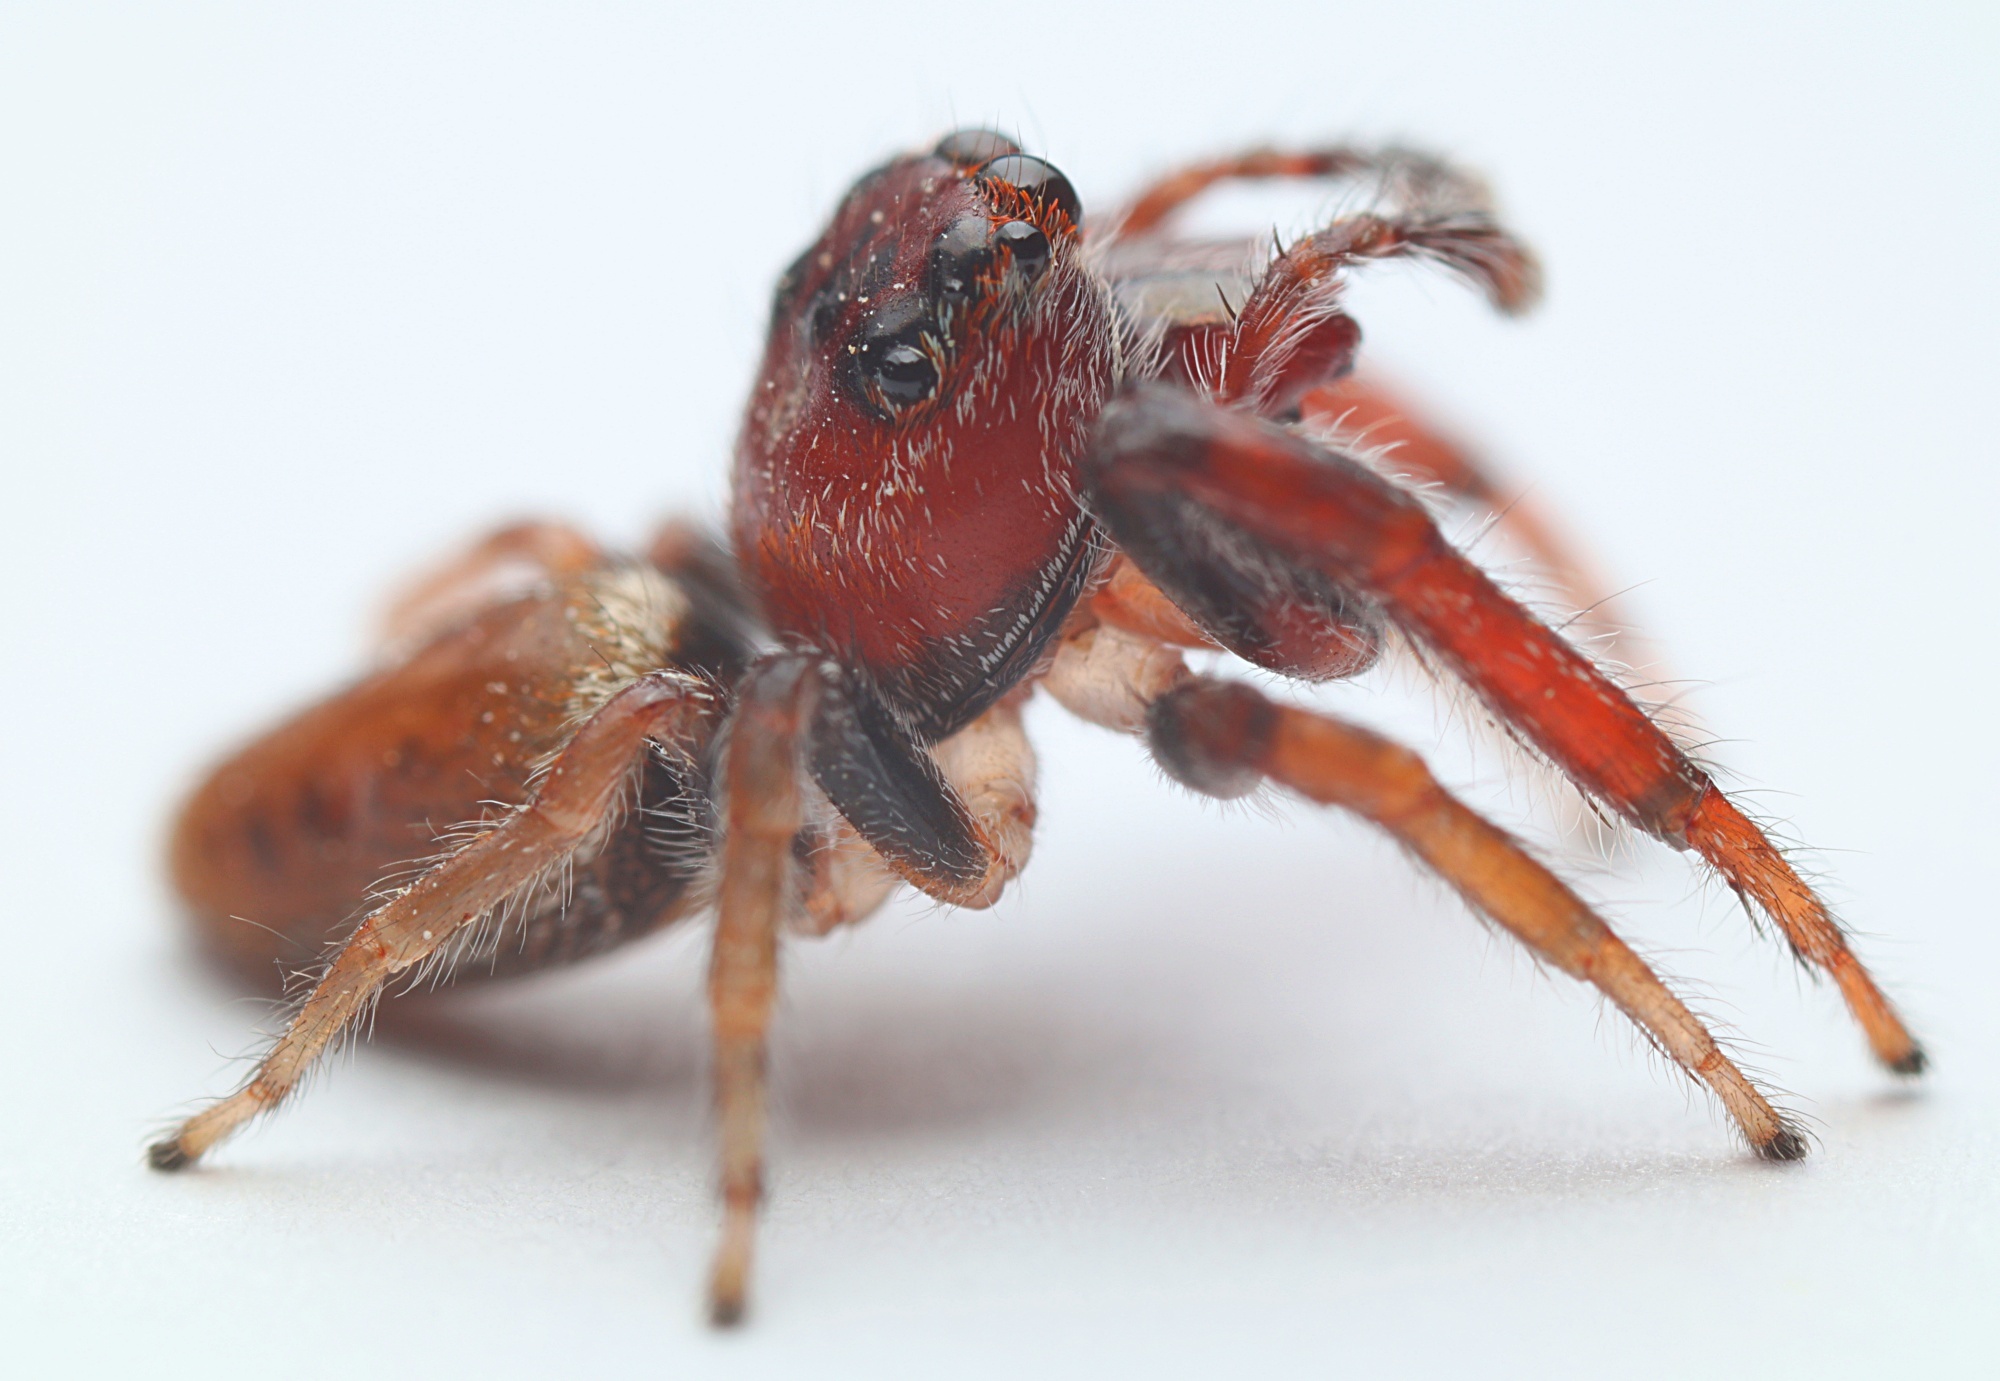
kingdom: Animalia
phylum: Arthropoda
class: Arachnida
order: Araneae
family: Salticidae
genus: Opisthoncus
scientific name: Opisthoncus polyphemus
